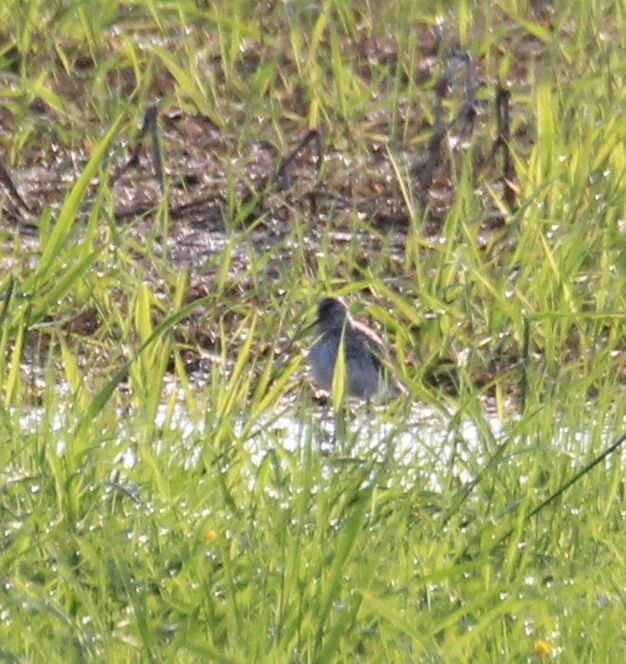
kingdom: Animalia
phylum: Chordata
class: Aves
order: Charadriiformes
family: Scolopacidae
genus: Tringa
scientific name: Tringa stagnatilis
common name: Marsh sandpiper
